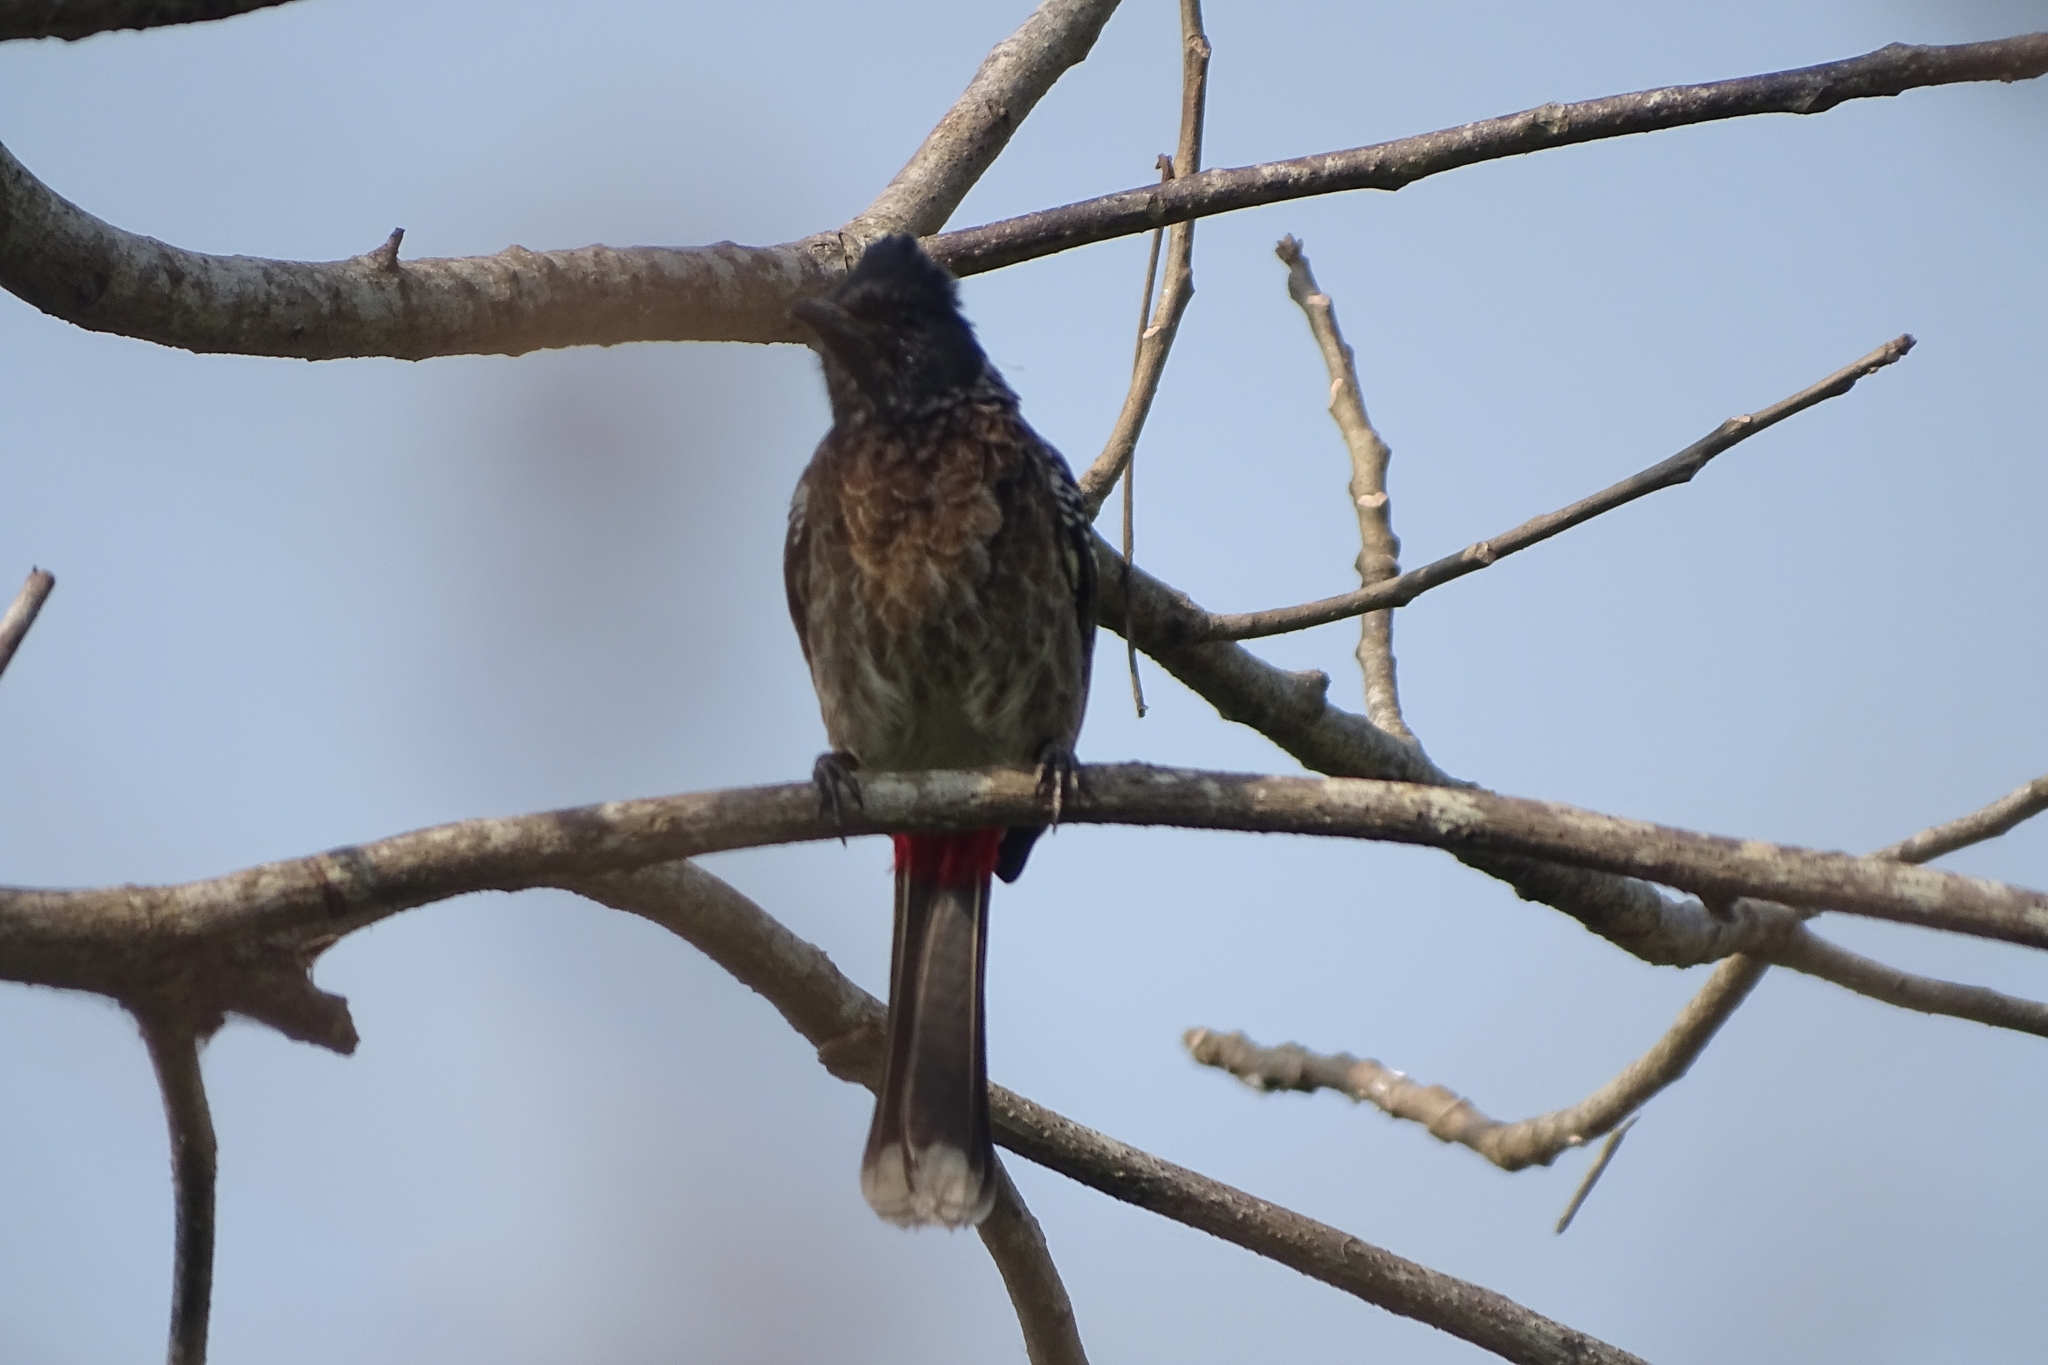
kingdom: Animalia
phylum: Chordata
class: Aves
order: Passeriformes
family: Pycnonotidae
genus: Pycnonotus
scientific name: Pycnonotus cafer
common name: Red-vented bulbul
